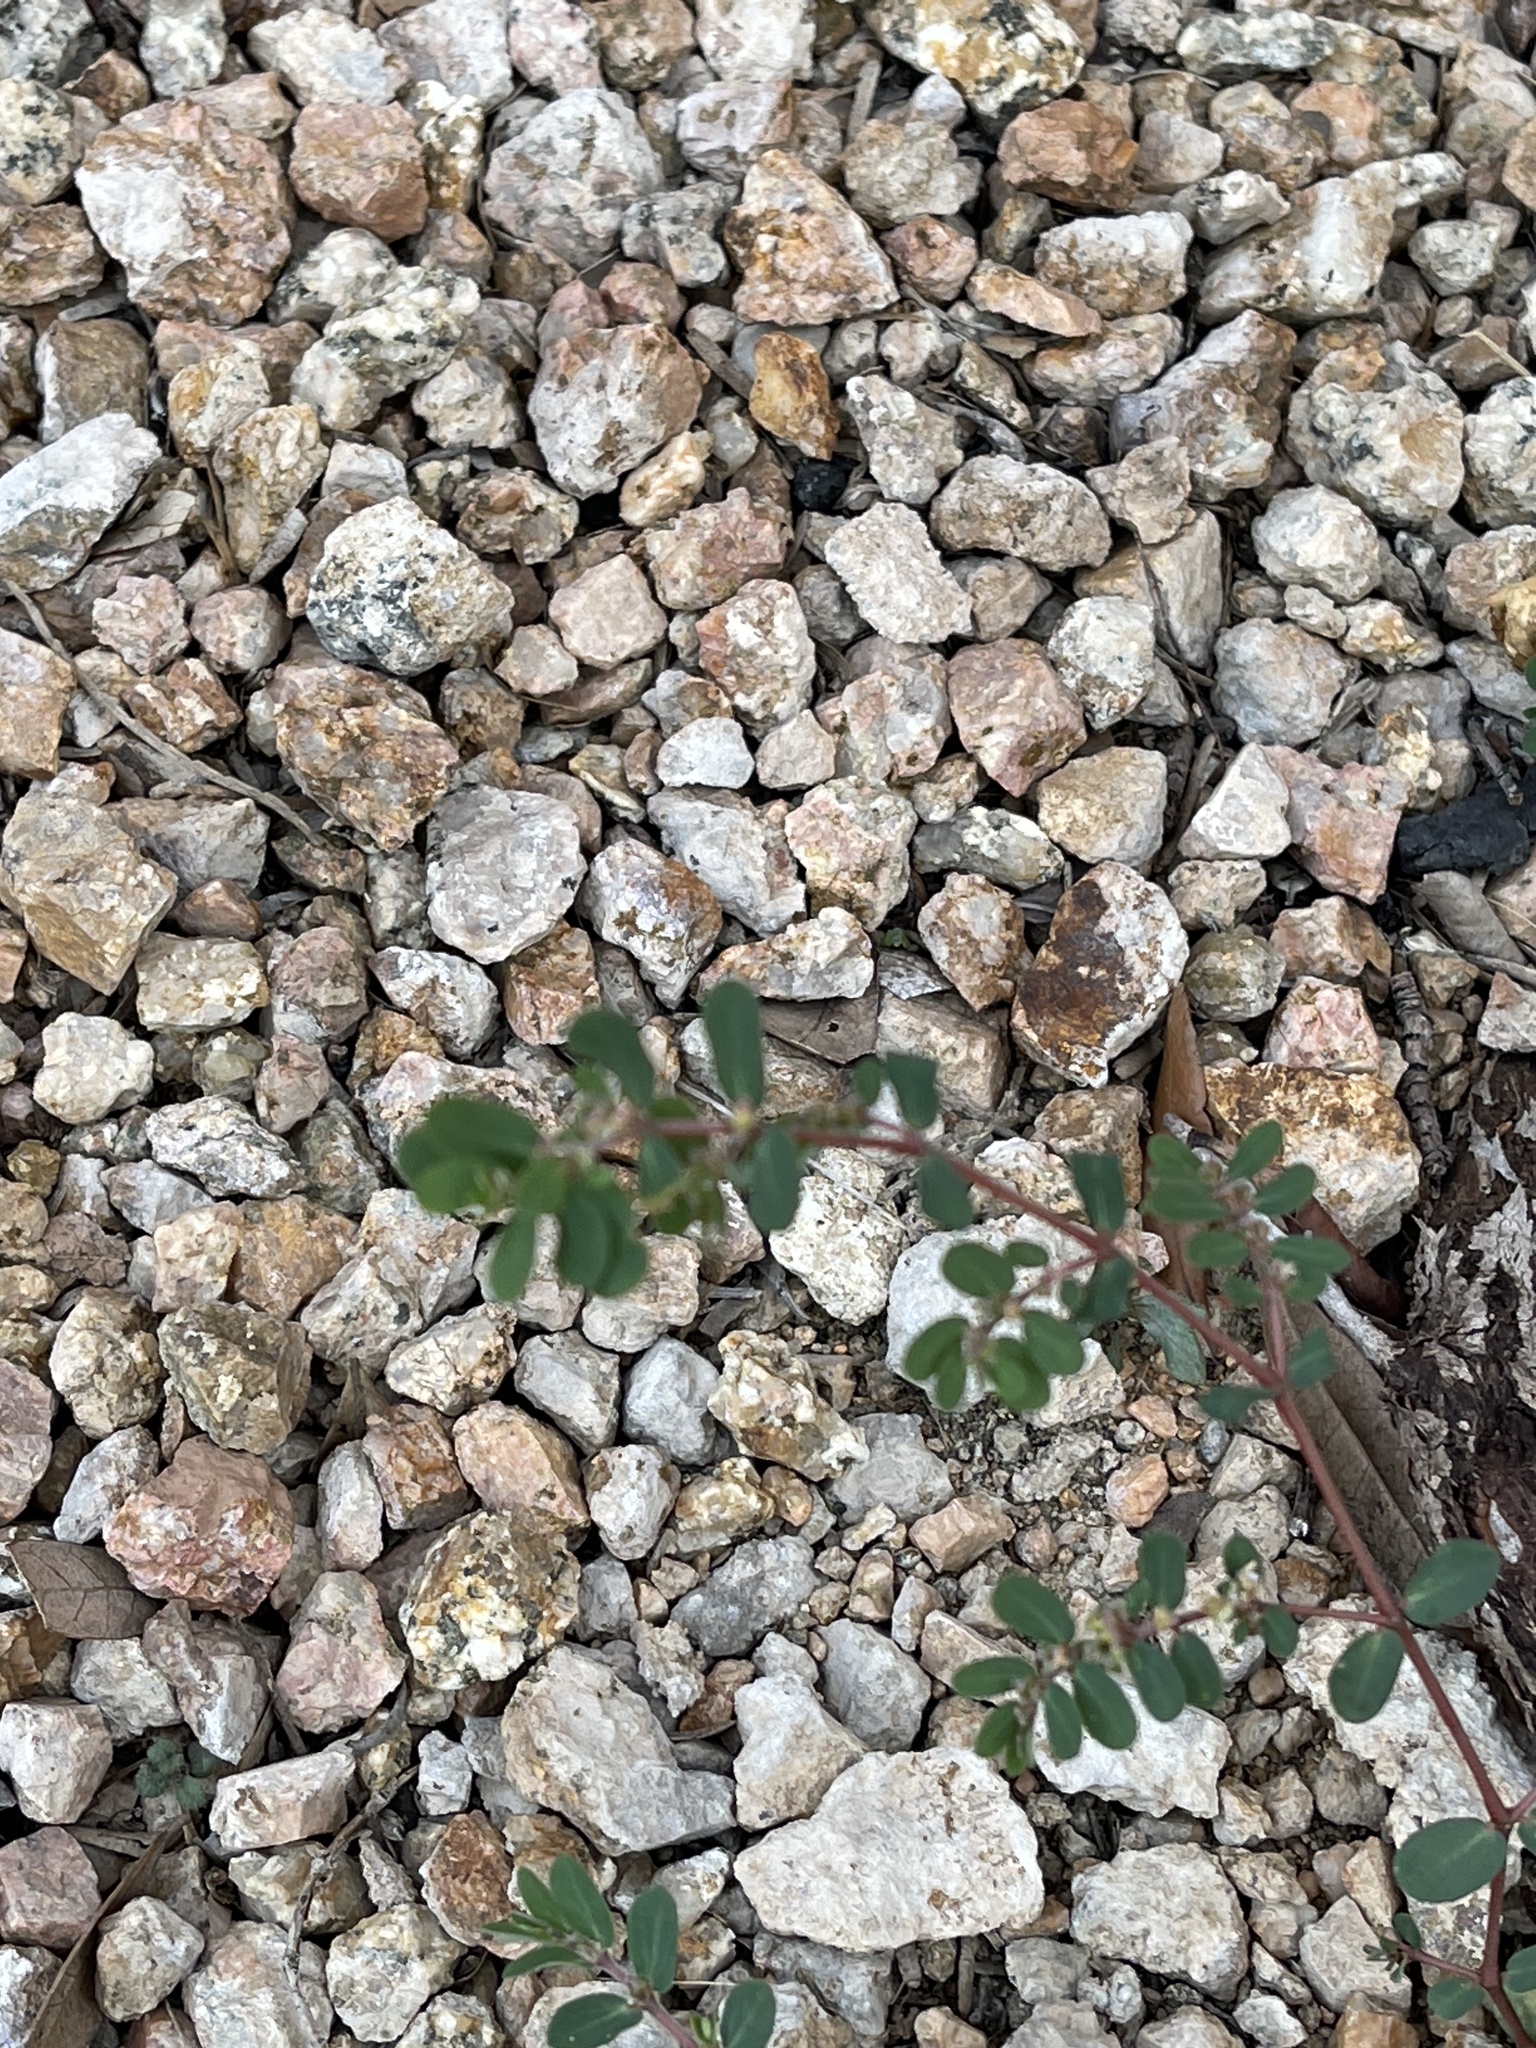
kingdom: Plantae
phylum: Tracheophyta
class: Magnoliopsida
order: Malpighiales
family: Euphorbiaceae
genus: Euphorbia
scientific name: Euphorbia prostrata
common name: Prostrate sandmat
